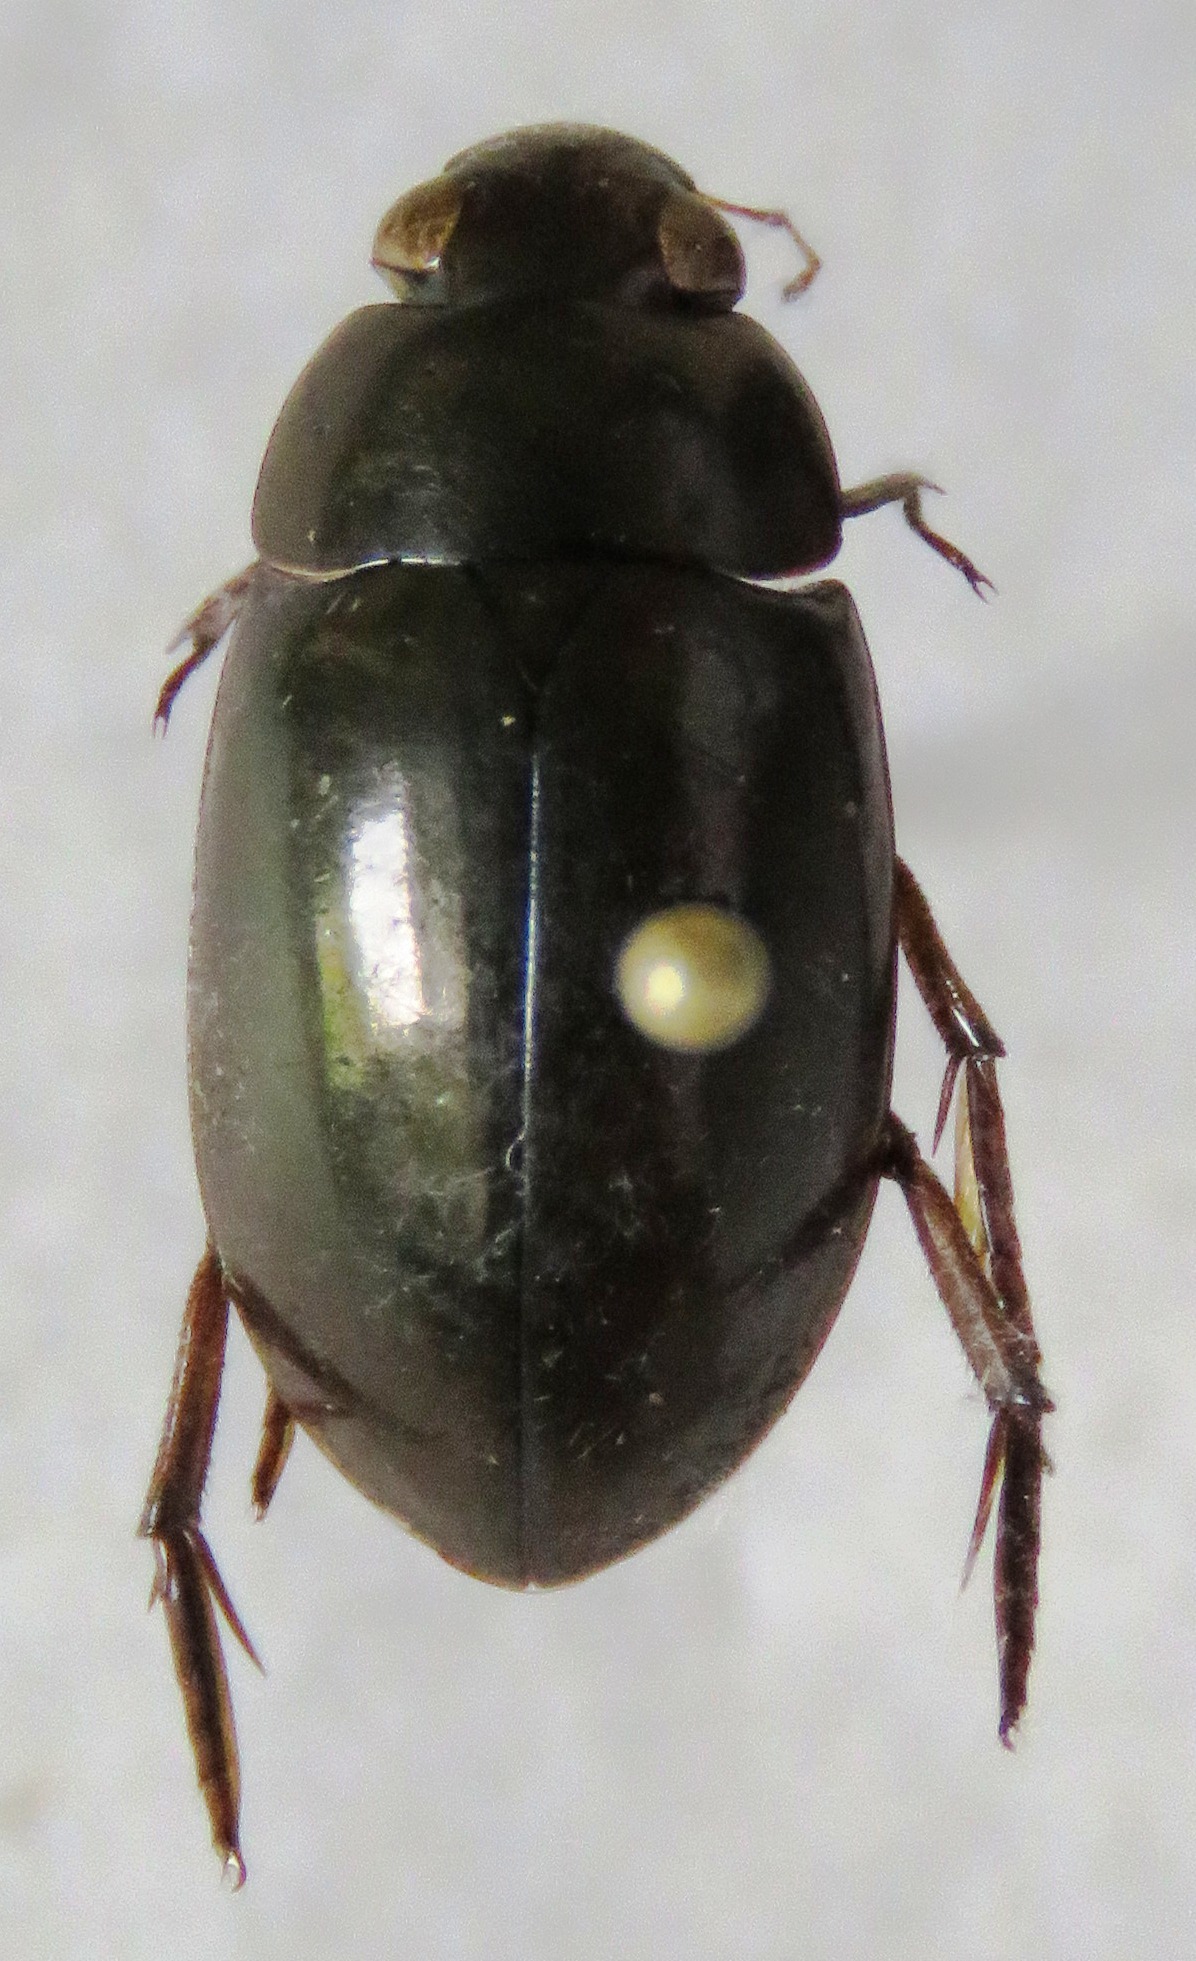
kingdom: Animalia
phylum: Arthropoda
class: Insecta
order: Coleoptera
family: Hydrophilidae
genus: Tropisternus
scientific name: Tropisternus
